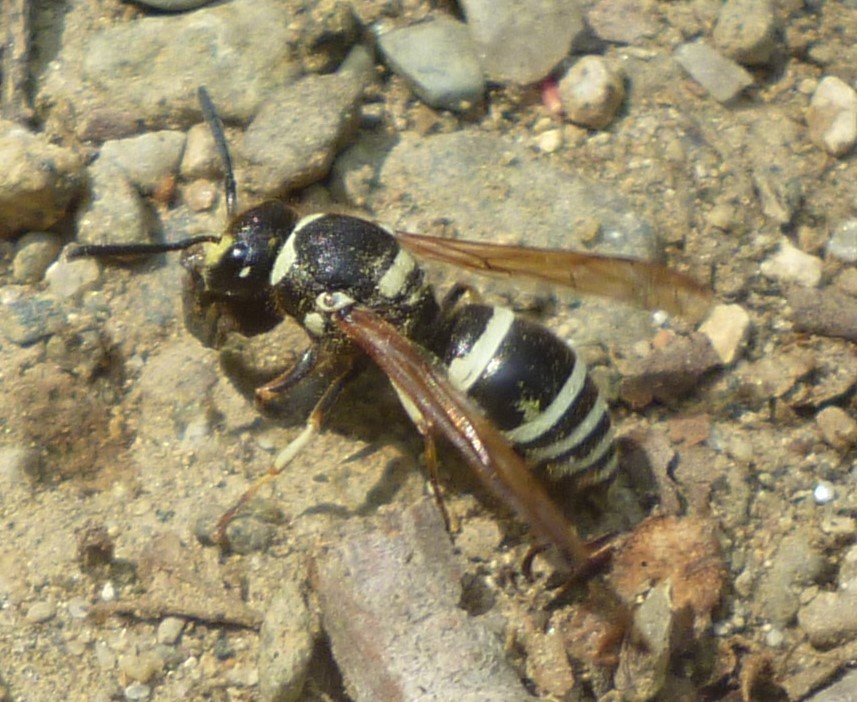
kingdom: Animalia
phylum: Arthropoda
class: Insecta
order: Hymenoptera
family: Vespidae
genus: Ancistrocerus
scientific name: Ancistrocerus waldenii
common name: Walden’s potter wasp
